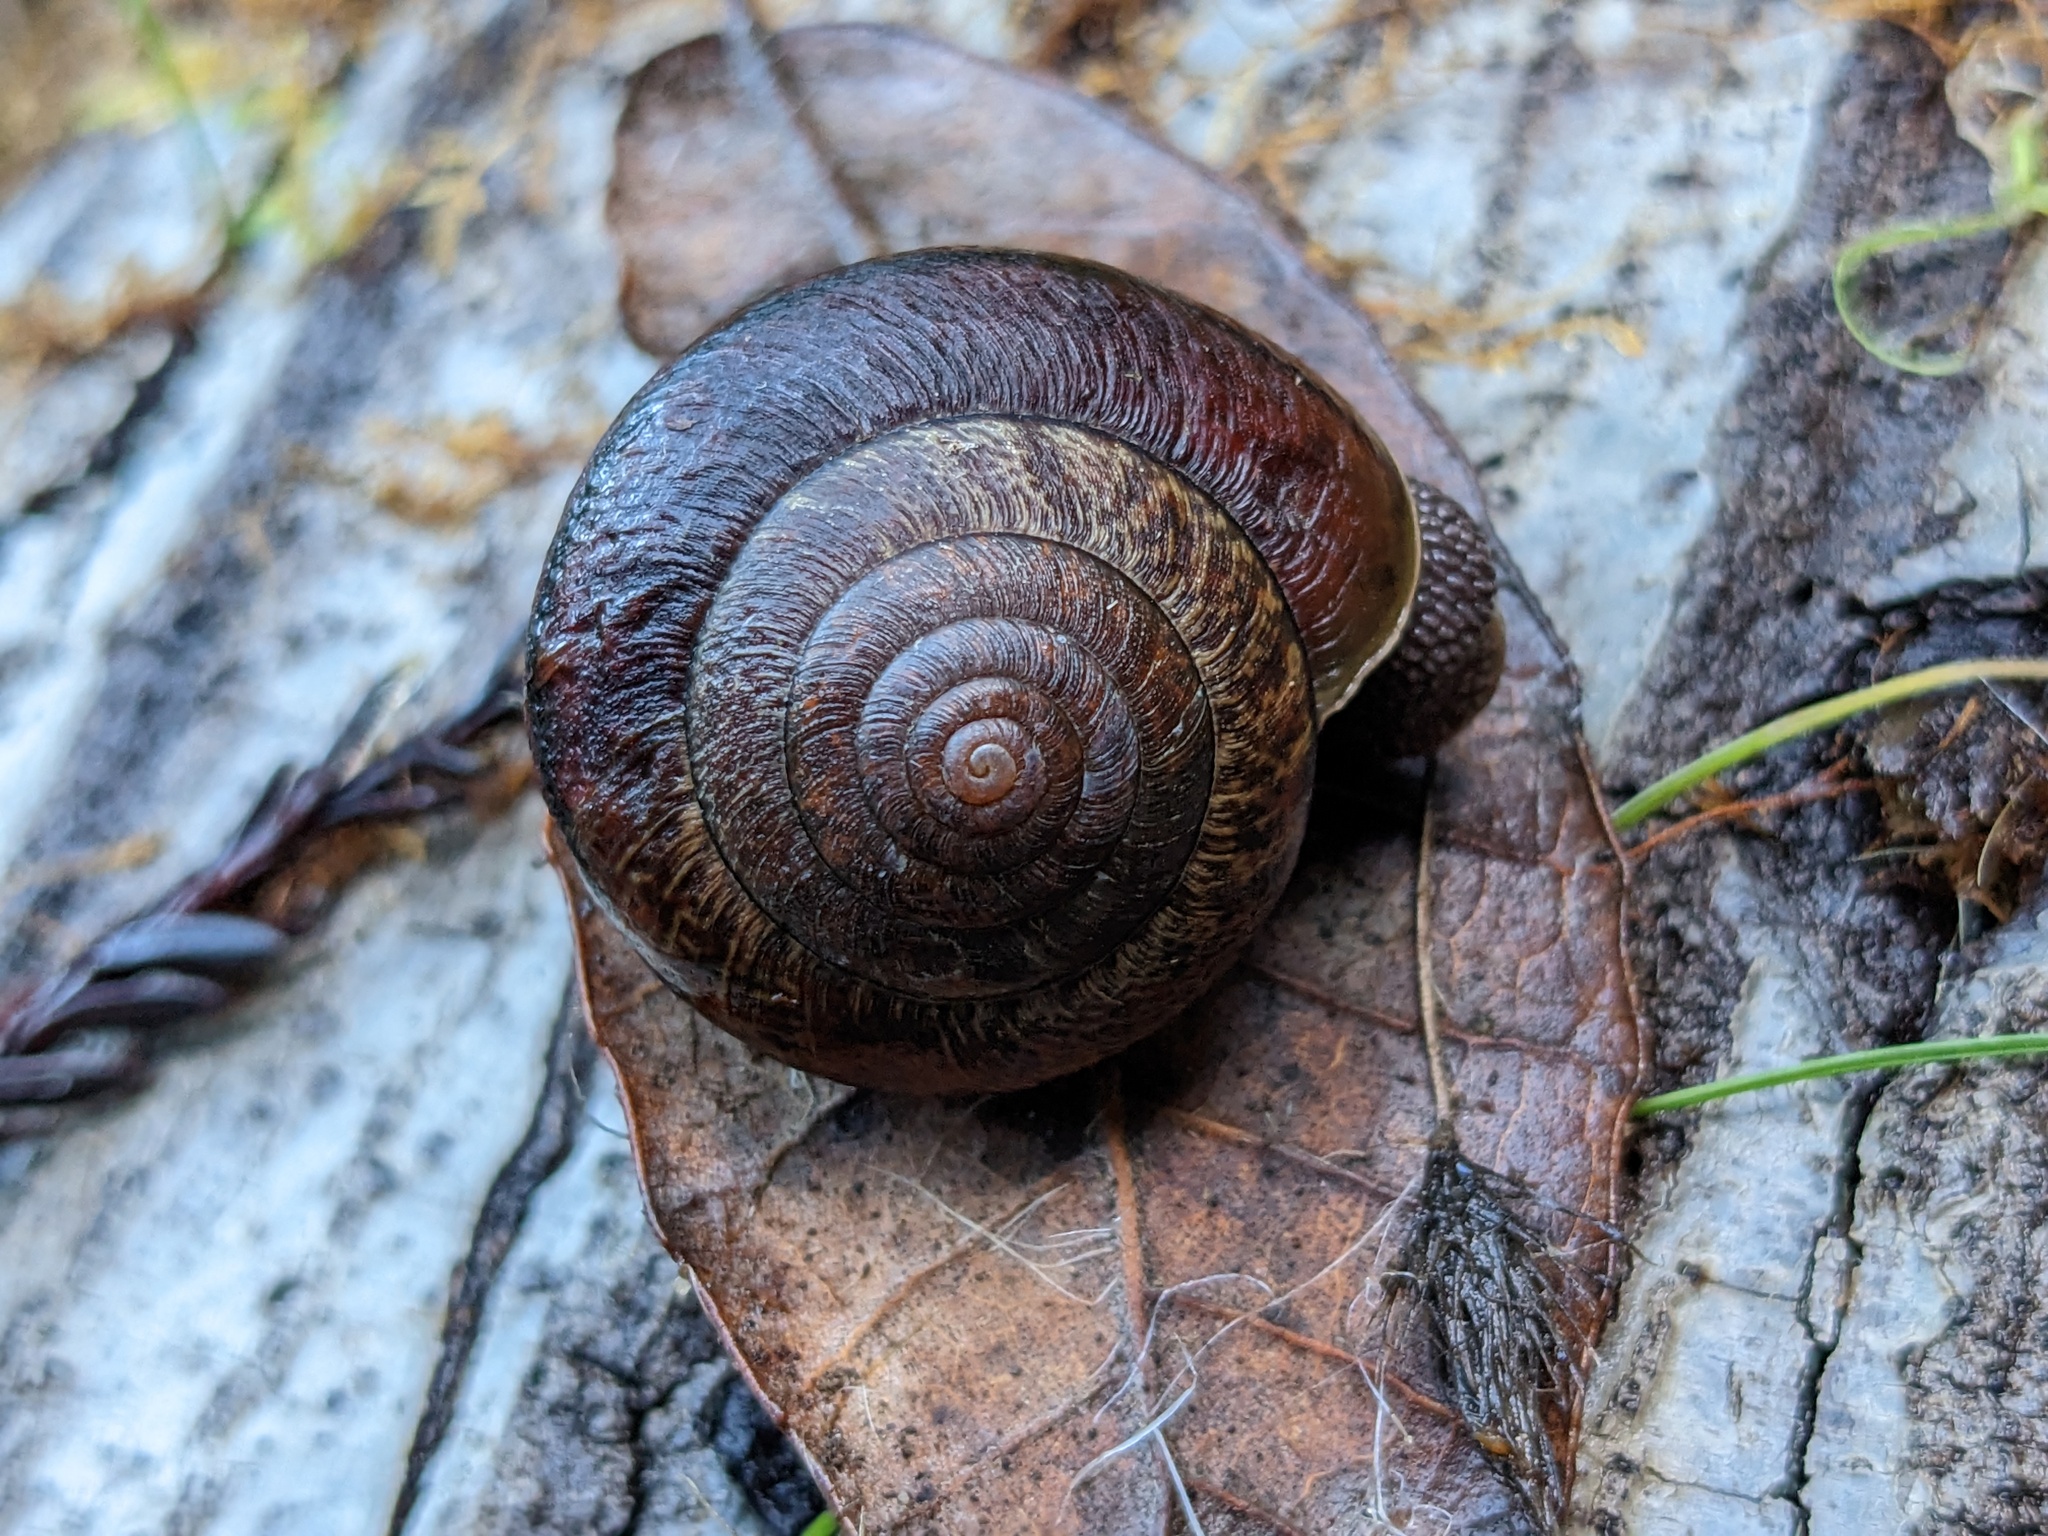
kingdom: Animalia
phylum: Mollusca
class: Gastropoda
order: Stylommatophora
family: Xanthonychidae
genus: Helminthoglypta
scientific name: Helminthoglypta arrosa
